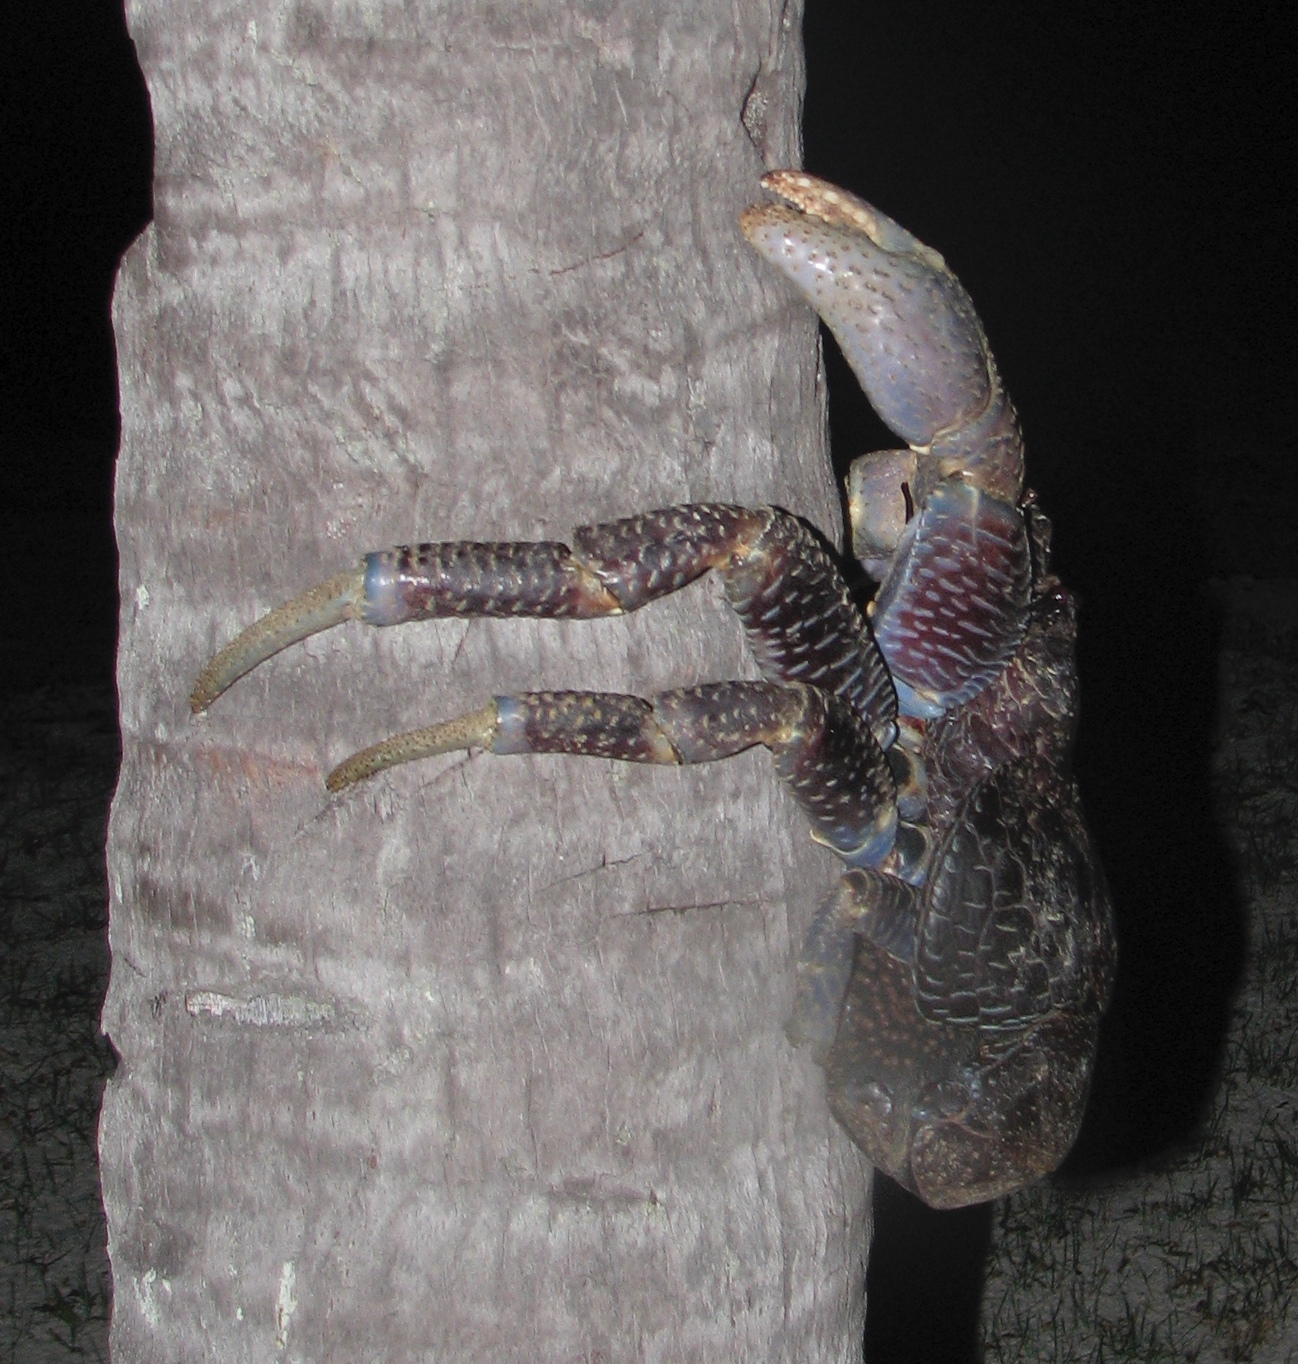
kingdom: Animalia
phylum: Arthropoda
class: Malacostraca
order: Decapoda
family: Coenobitidae
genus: Birgus
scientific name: Birgus latro
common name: Coconut crab
